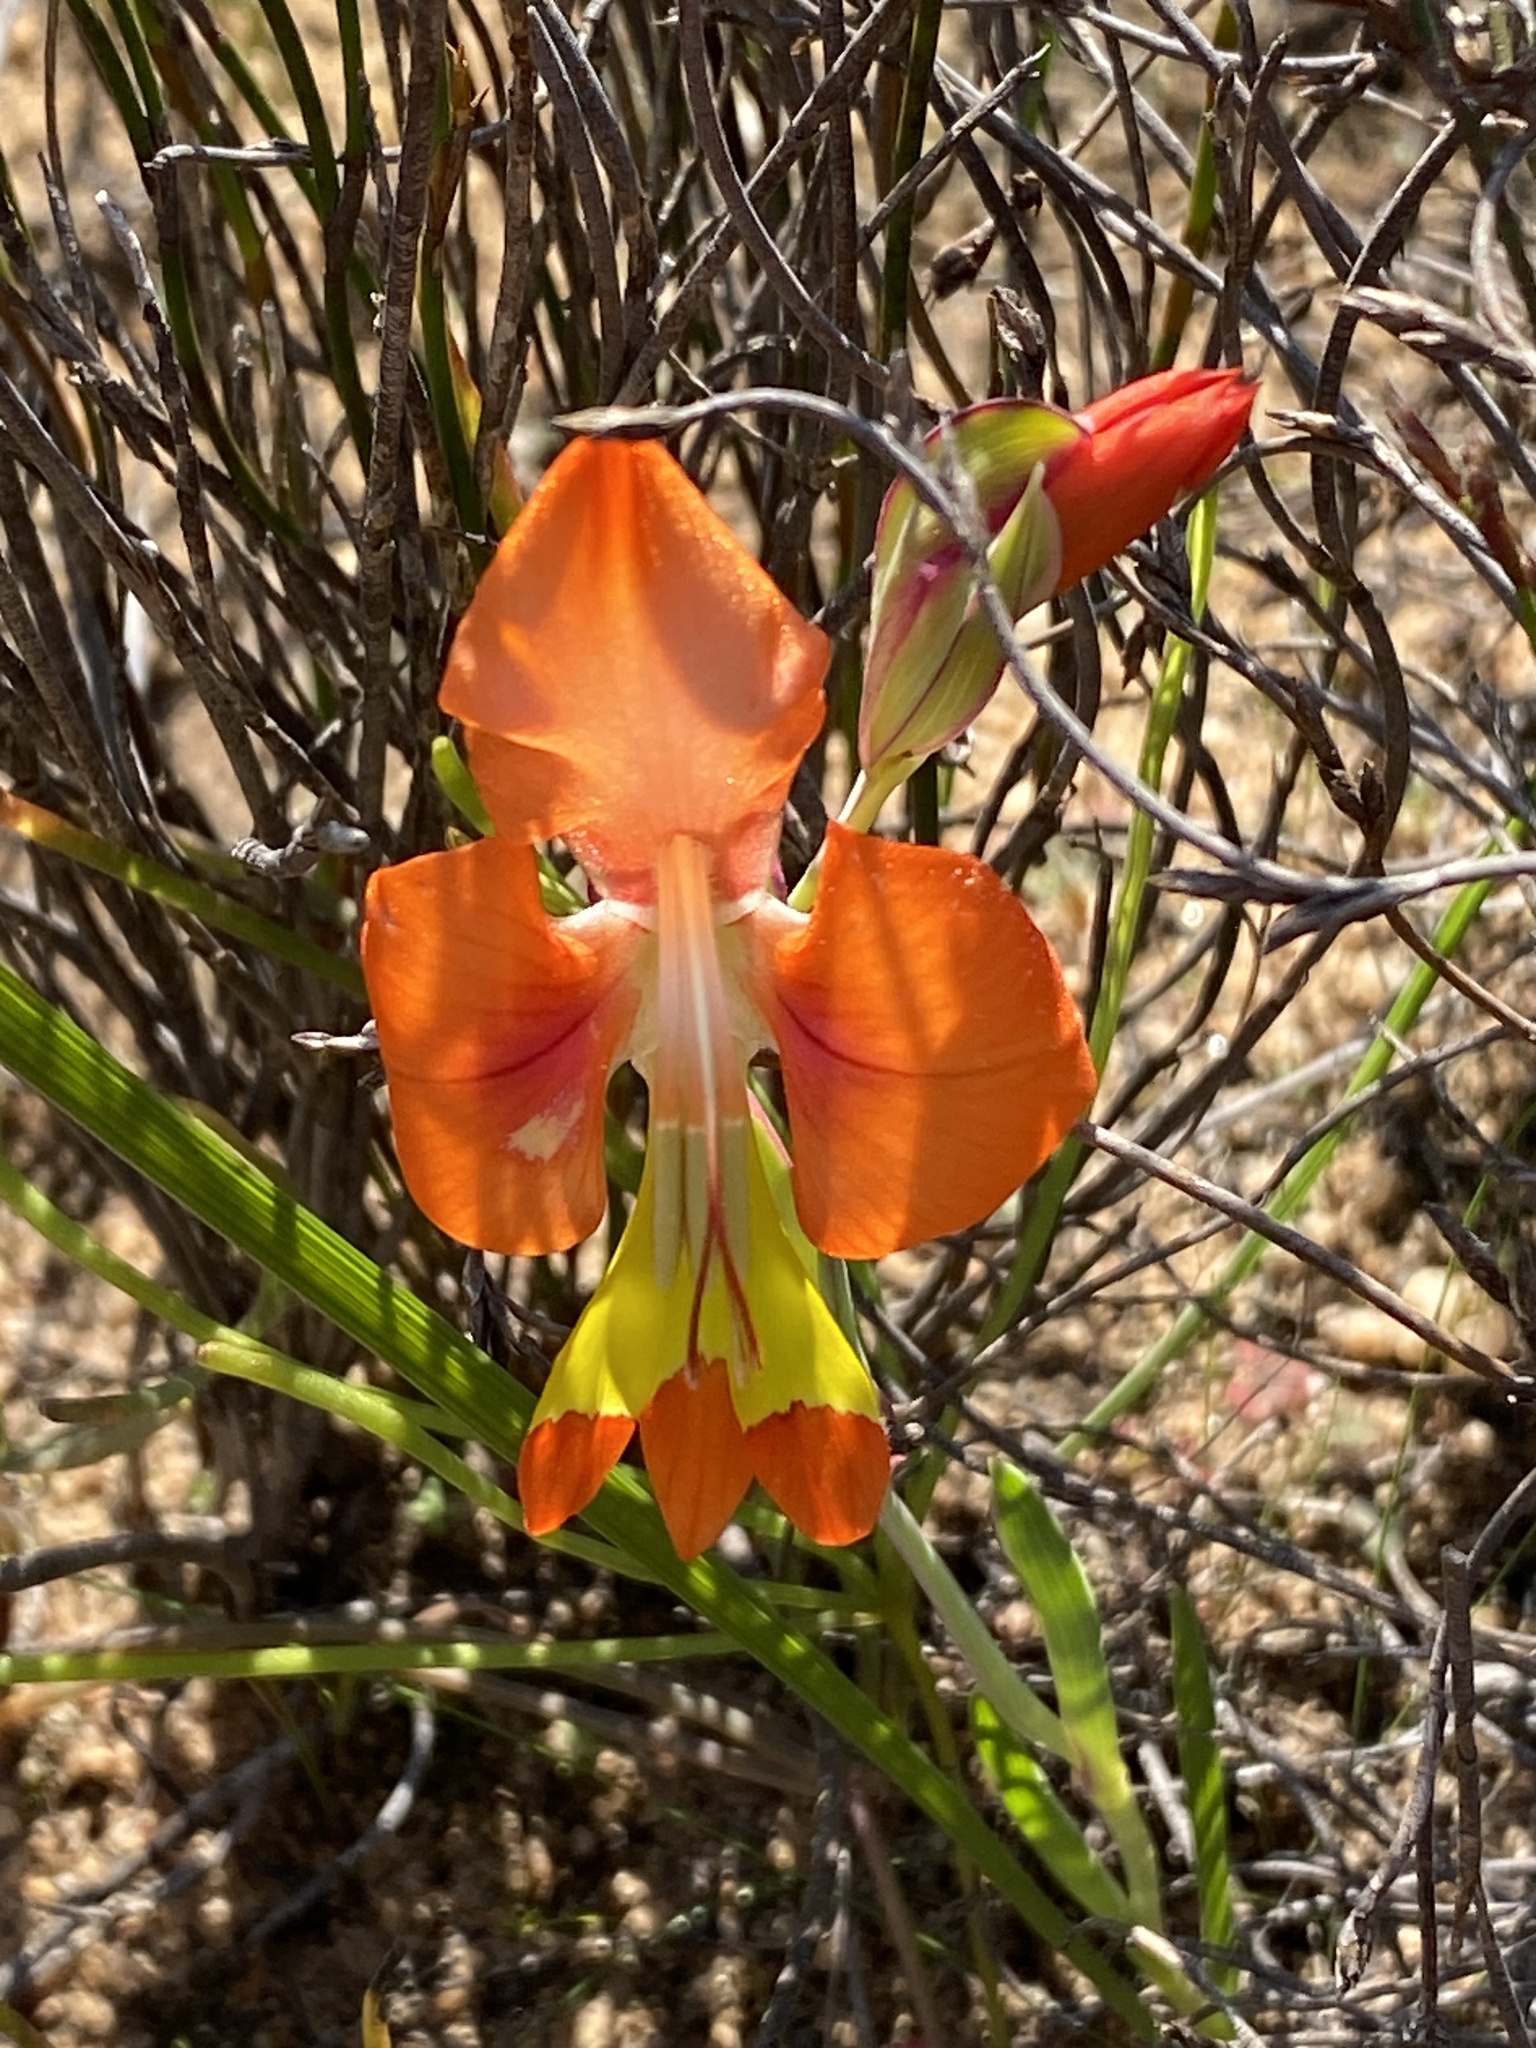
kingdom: Plantae
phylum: Tracheophyta
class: Liliopsida
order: Asparagales
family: Iridaceae
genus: Gladiolus
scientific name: Gladiolus alatus
